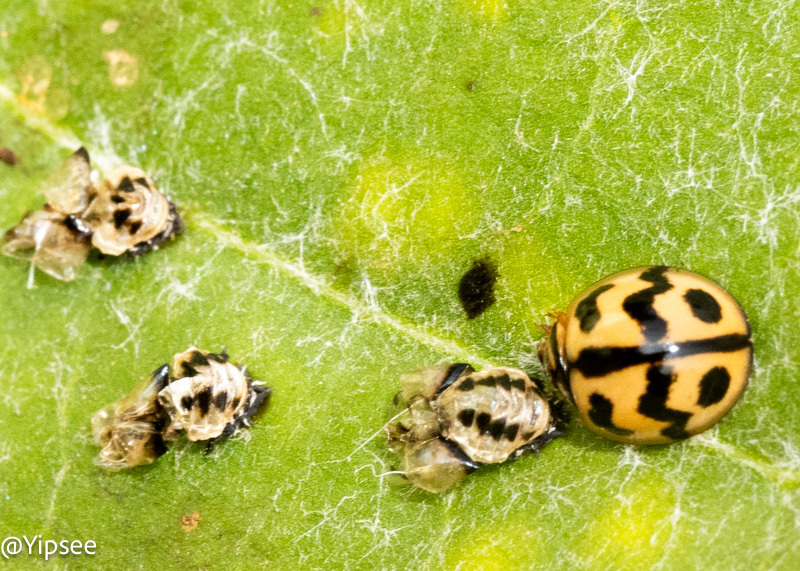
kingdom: Animalia
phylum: Arthropoda
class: Insecta
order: Coleoptera
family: Coccinellidae
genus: Cheilomenes
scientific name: Cheilomenes sexmaculata
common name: Ladybird beetle
